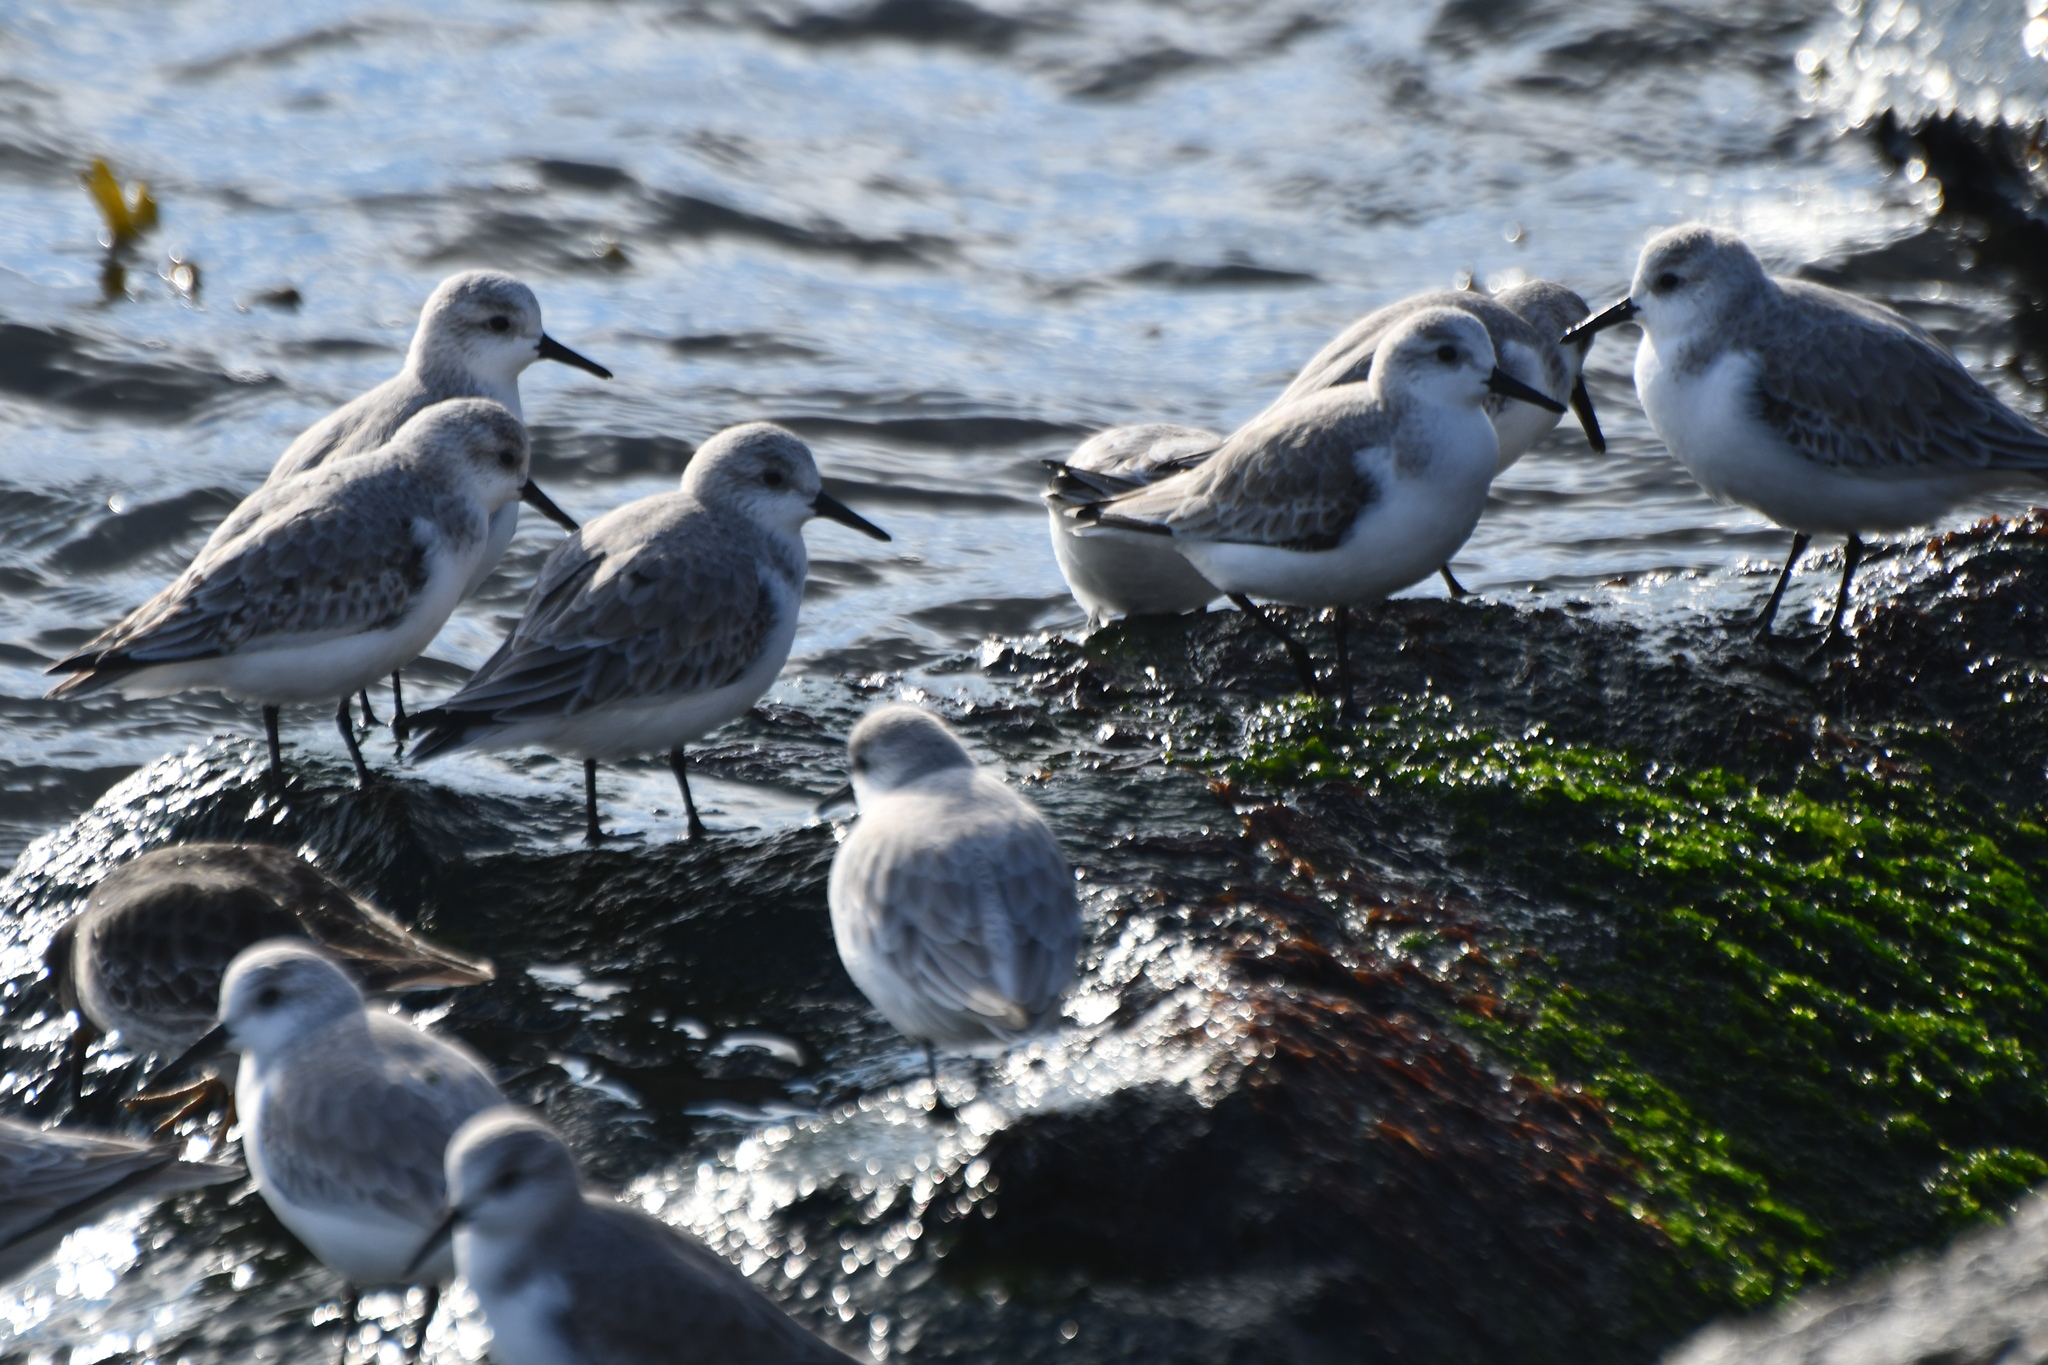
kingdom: Animalia
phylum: Chordata
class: Aves
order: Charadriiformes
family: Scolopacidae
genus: Calidris
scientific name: Calidris alba
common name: Sanderling
